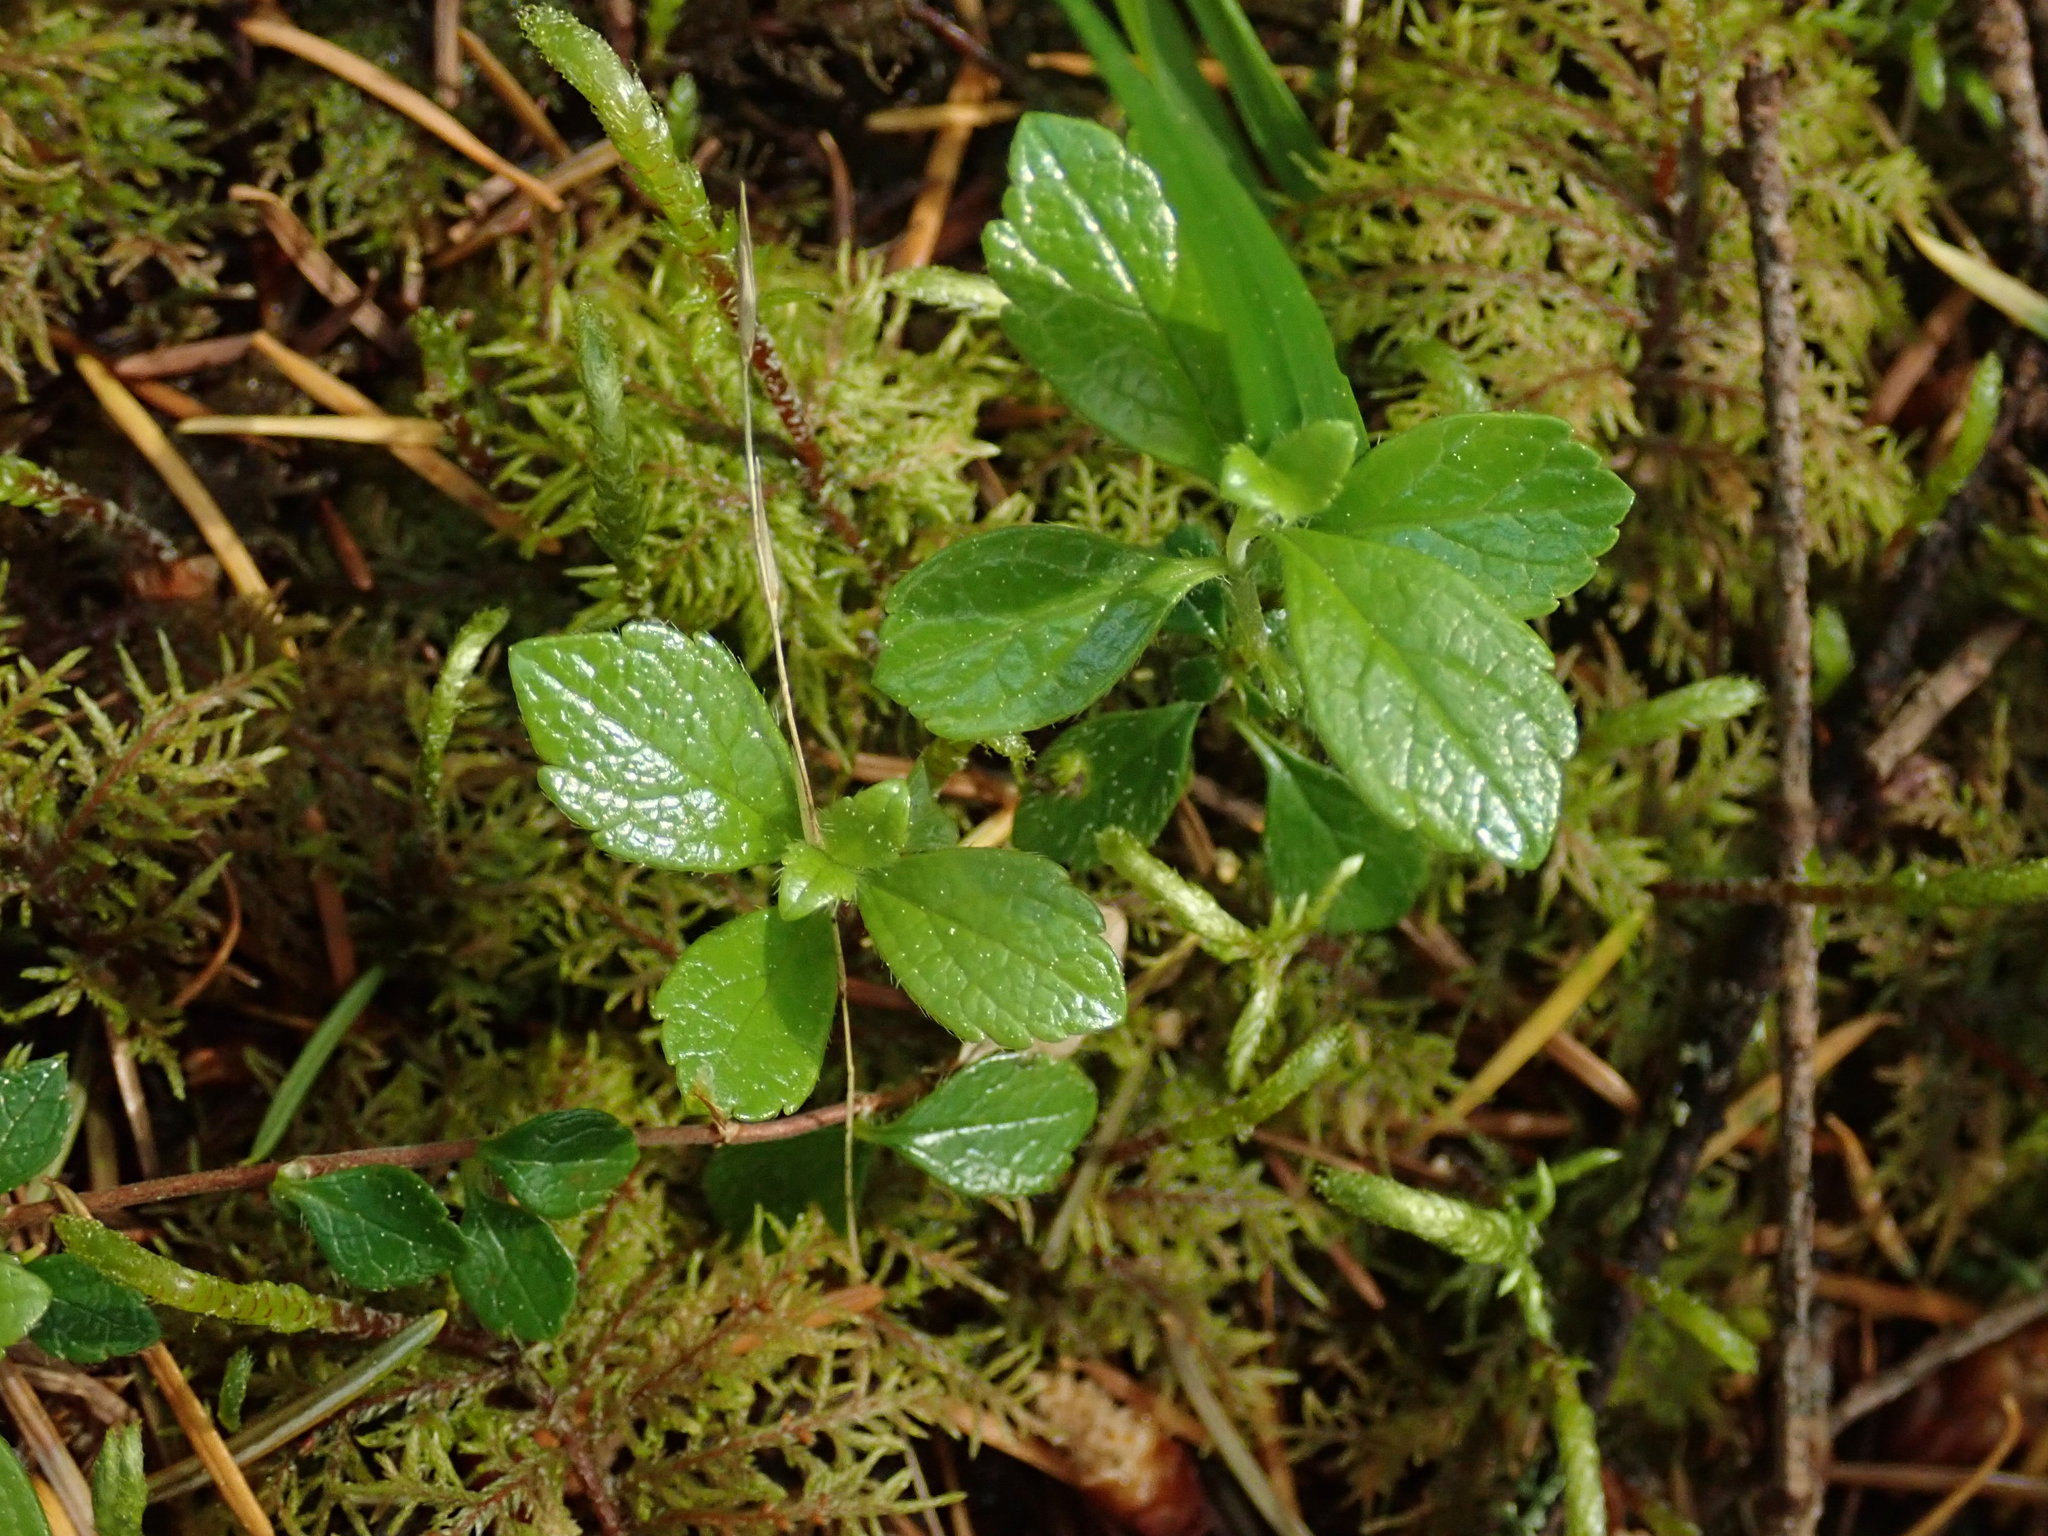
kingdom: Plantae
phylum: Tracheophyta
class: Magnoliopsida
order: Dipsacales
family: Caprifoliaceae
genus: Linnaea
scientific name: Linnaea borealis
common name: Twinflower
